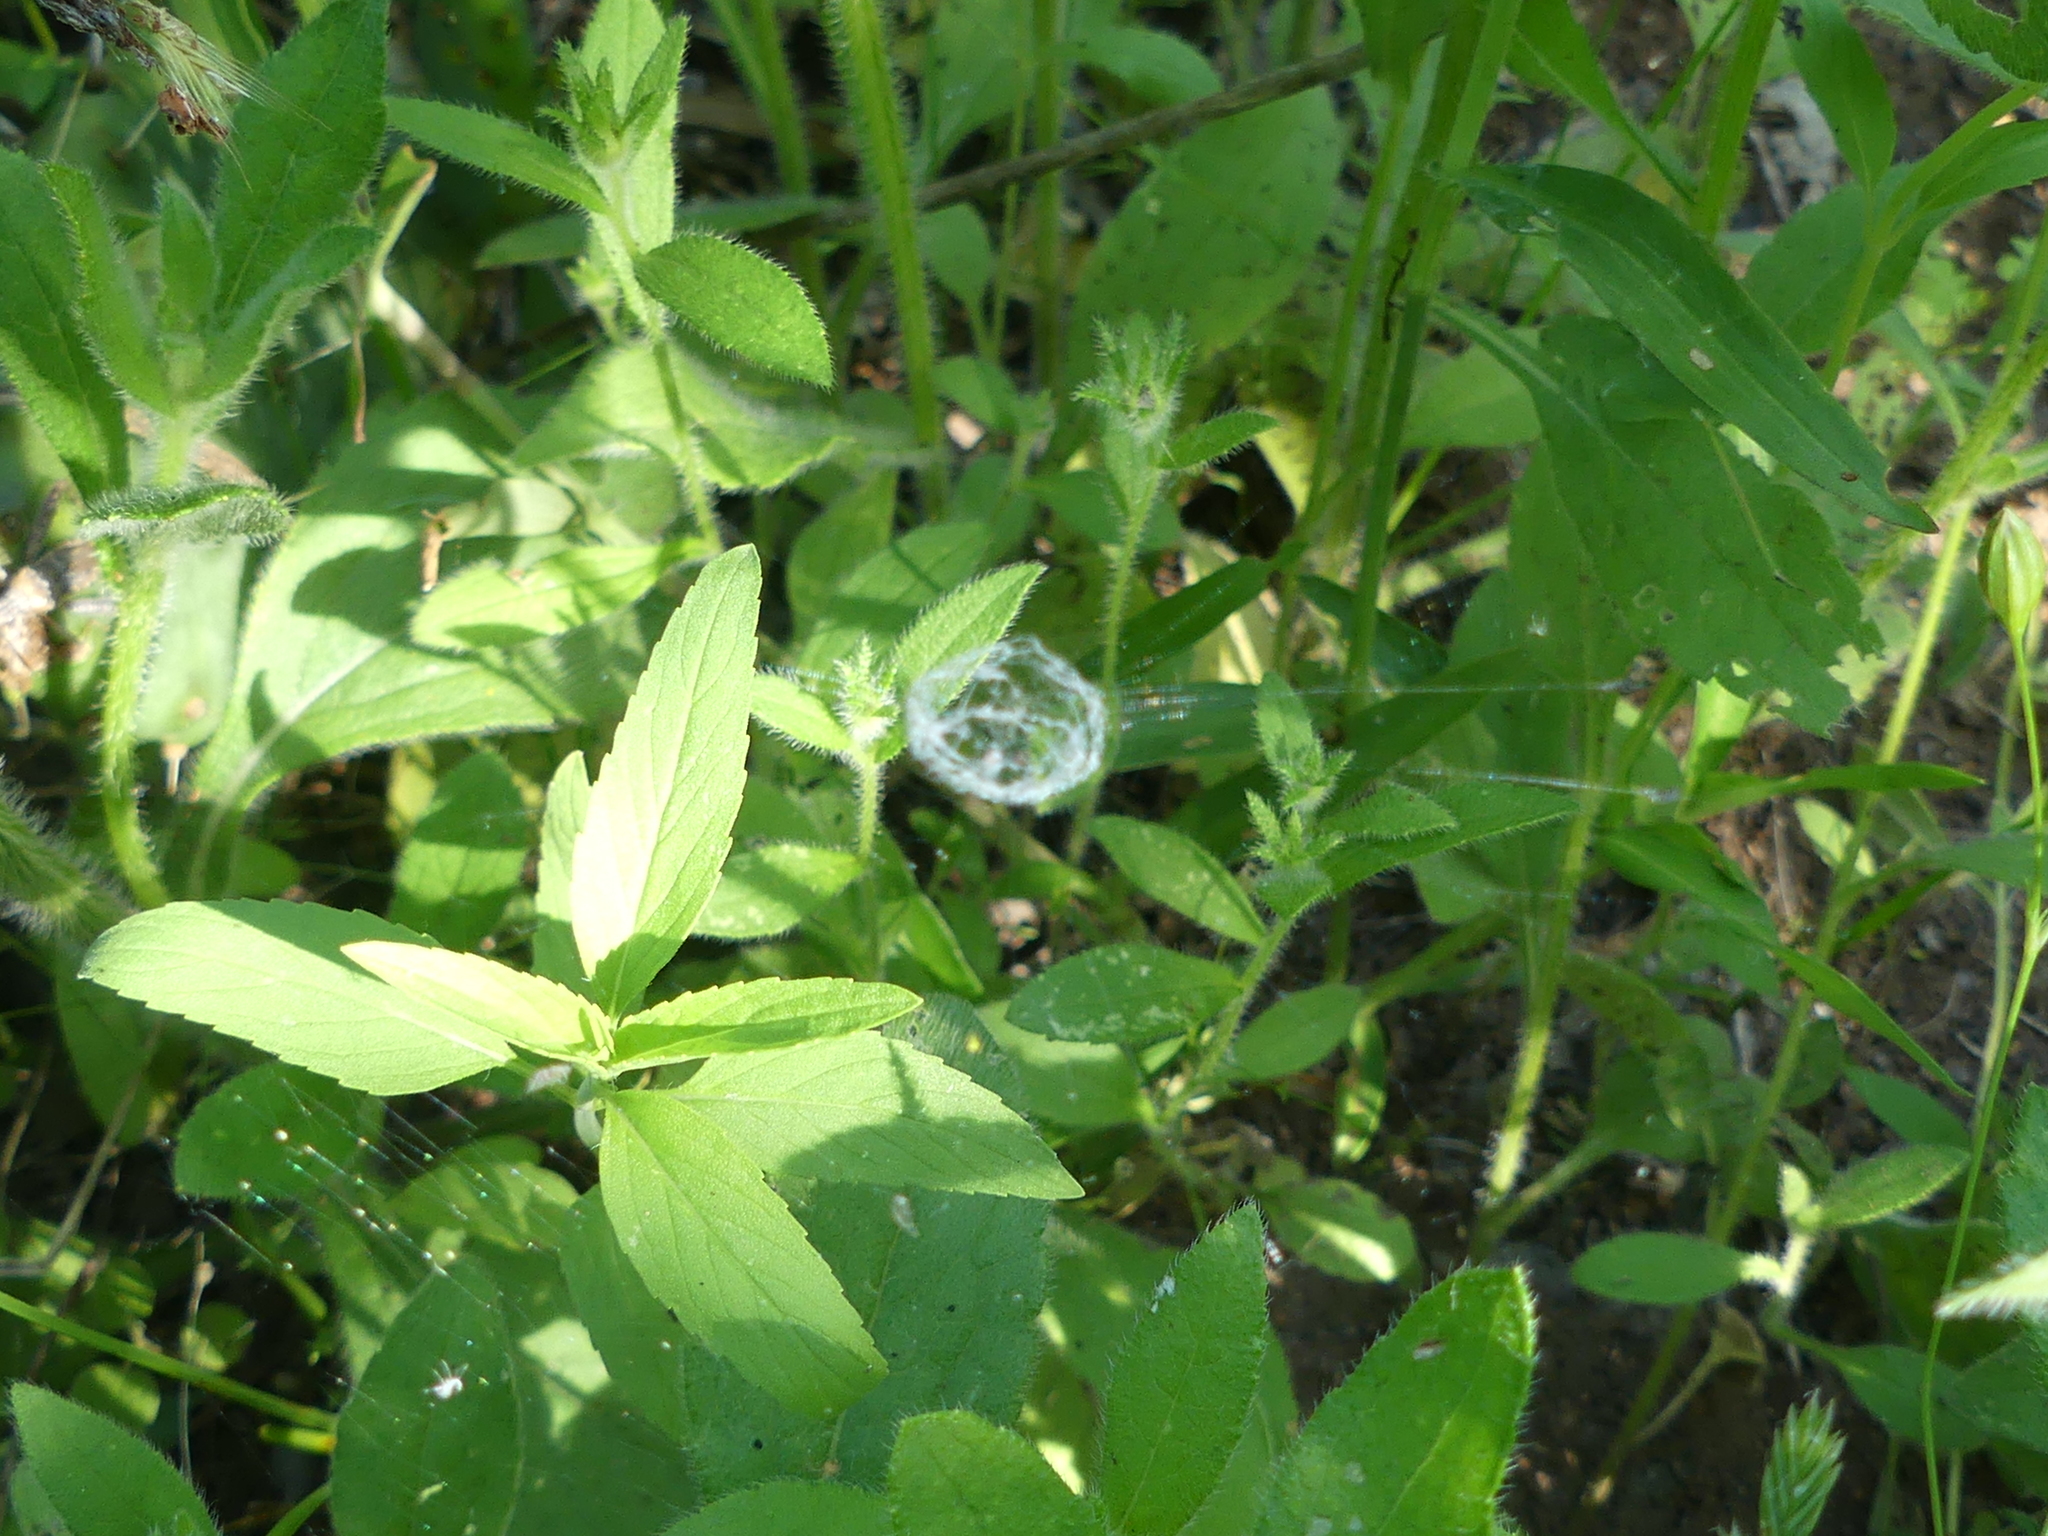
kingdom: Animalia
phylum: Arthropoda
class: Arachnida
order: Araneae
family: Araneidae
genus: Mangora
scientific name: Mangora gibberosa
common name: Lined orbweaver
